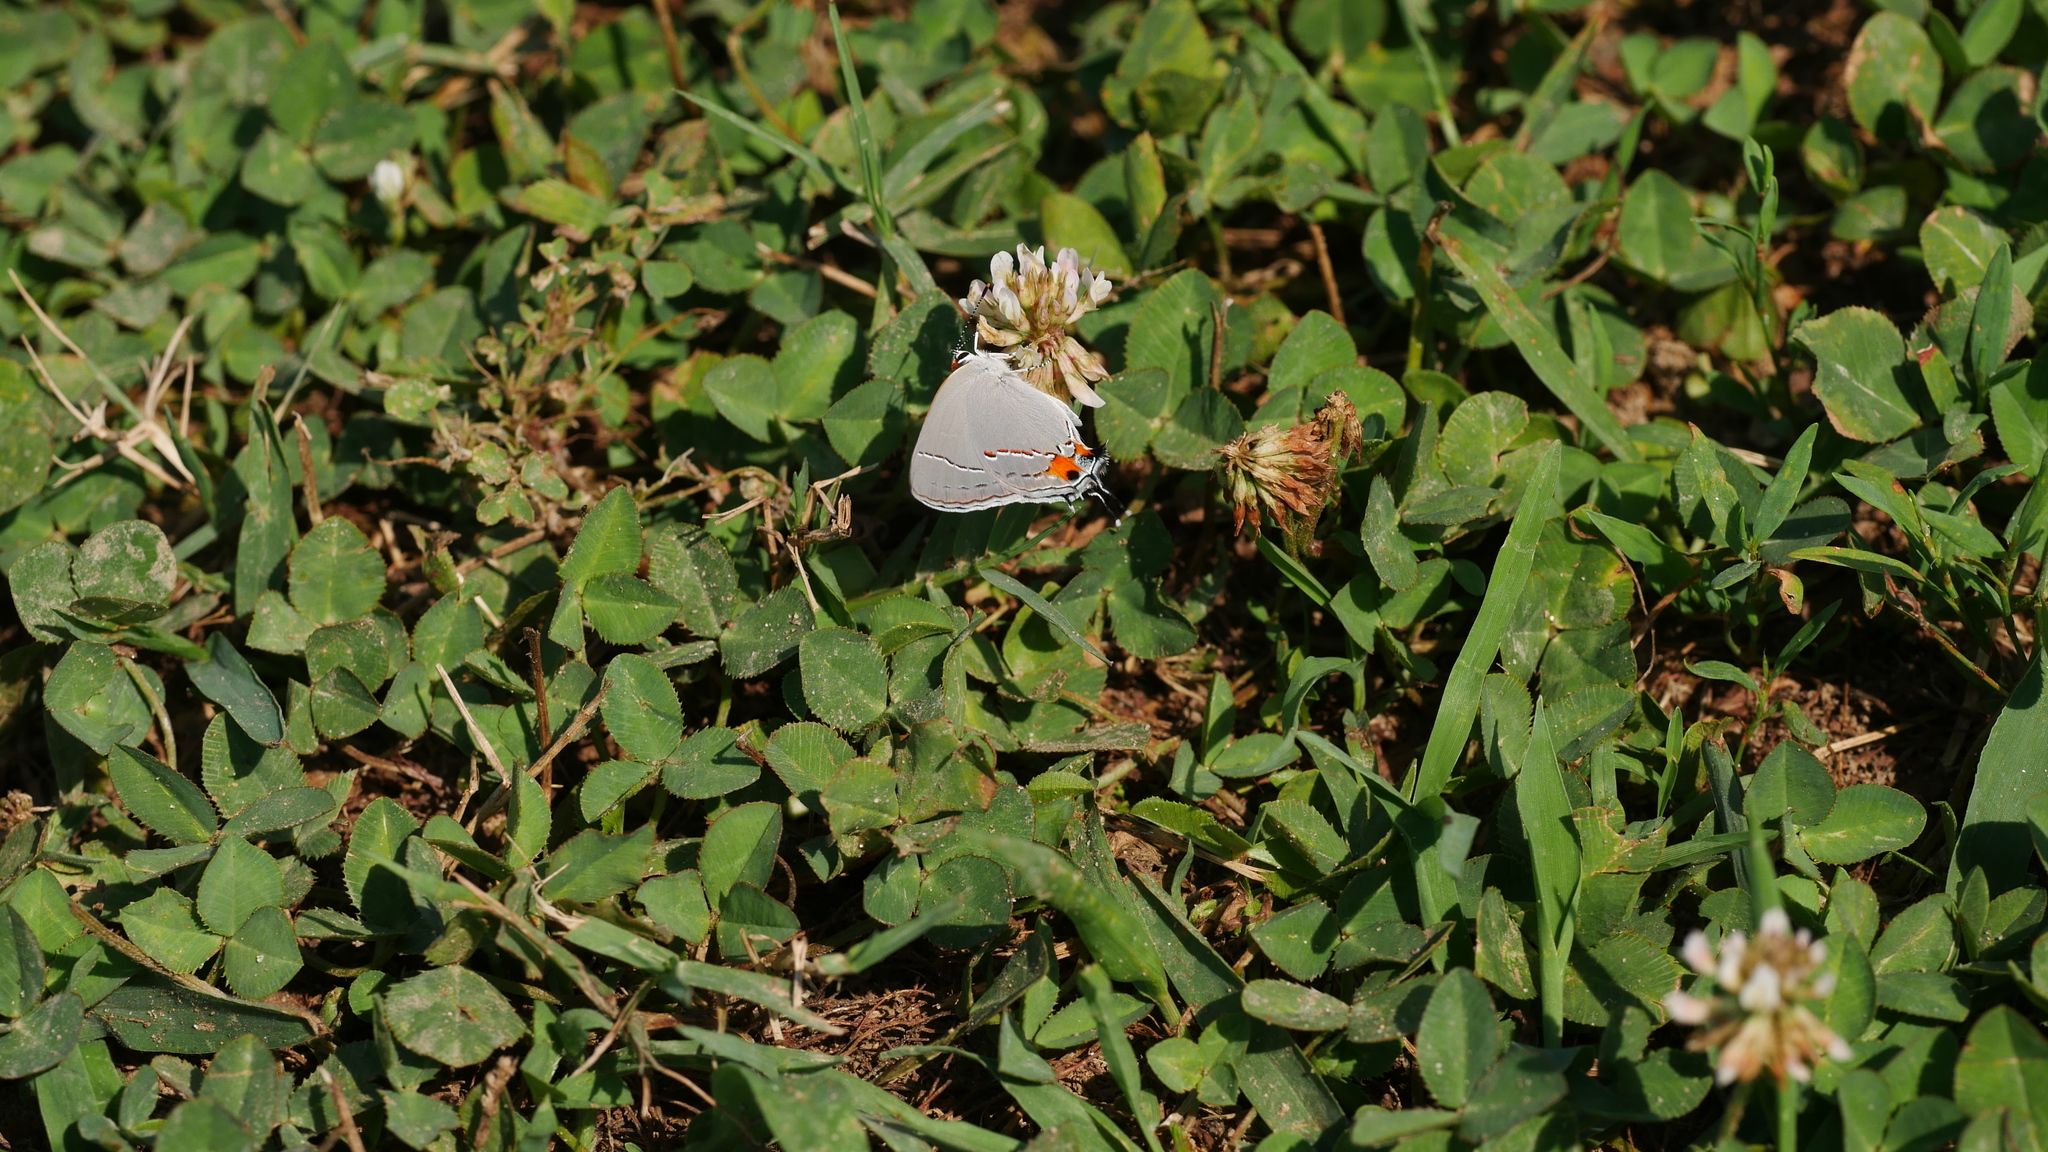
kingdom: Animalia
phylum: Arthropoda
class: Insecta
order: Lepidoptera
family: Lycaenidae
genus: Strymon
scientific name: Strymon melinus
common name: Gray hairstreak
